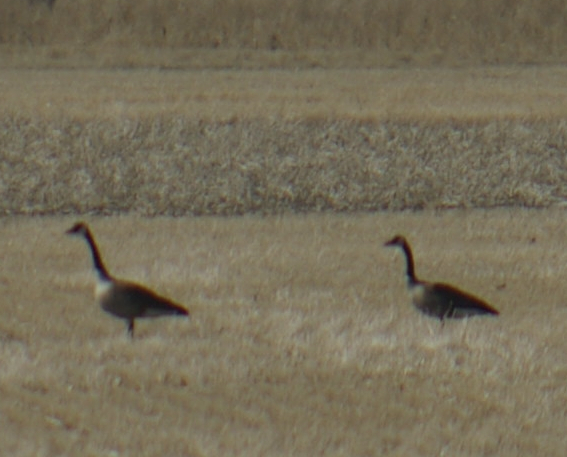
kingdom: Animalia
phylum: Chordata
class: Aves
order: Anseriformes
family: Anatidae
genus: Branta
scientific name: Branta canadensis
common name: Canada goose
